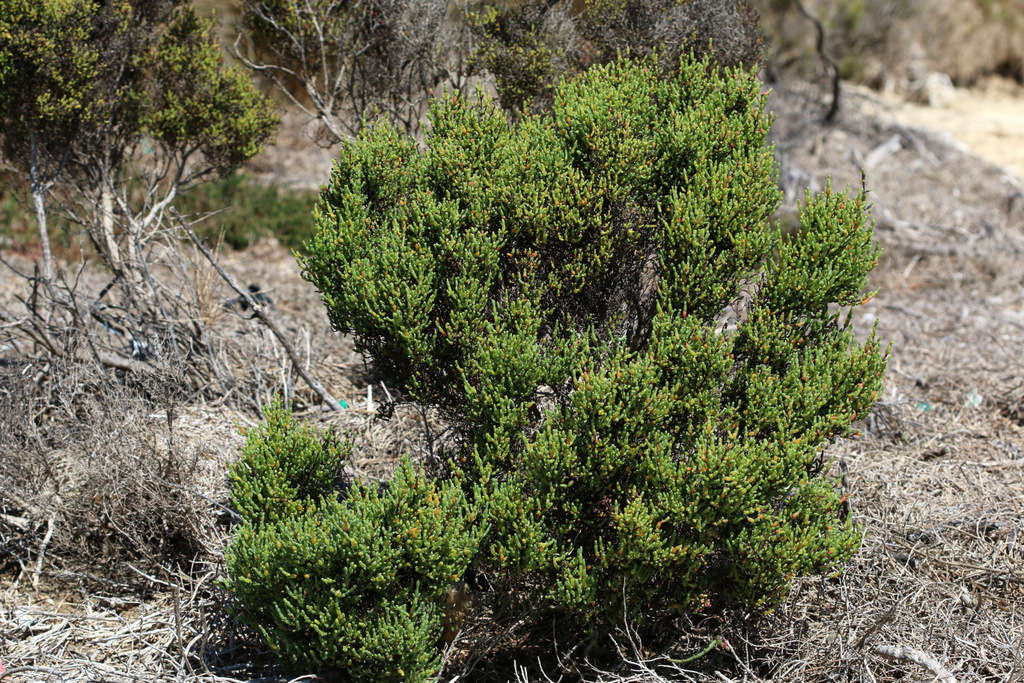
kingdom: Plantae
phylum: Tracheophyta
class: Magnoliopsida
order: Caryophyllales
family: Amaranthaceae
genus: Tecticornia
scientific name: Tecticornia arbuscula
